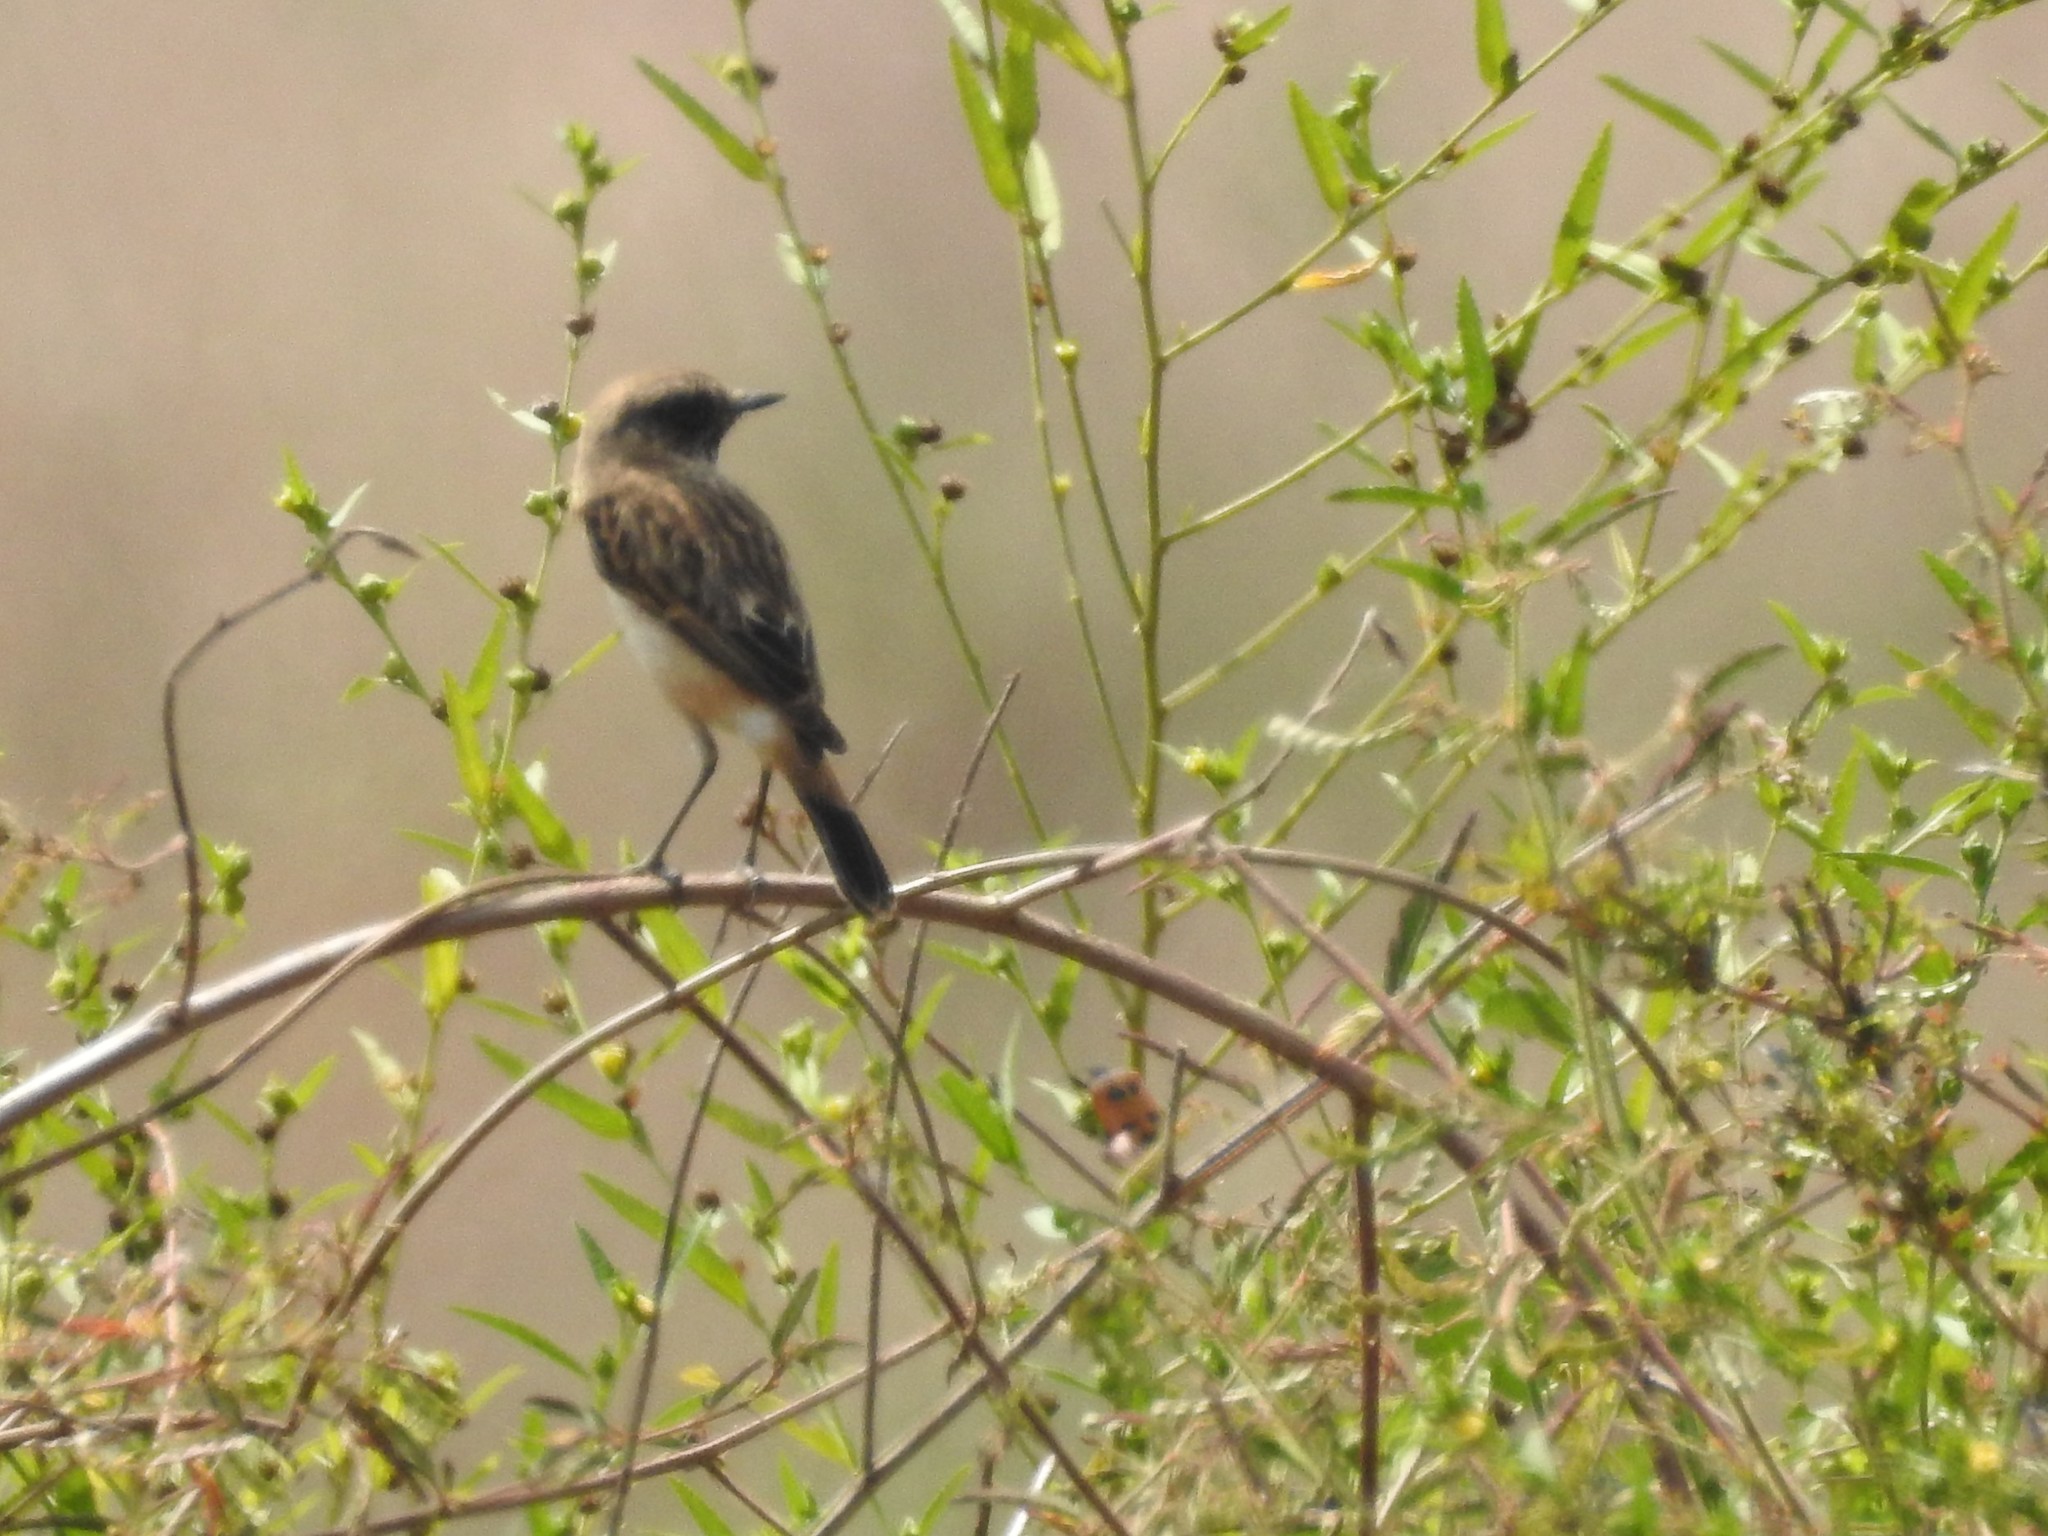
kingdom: Animalia
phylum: Chordata
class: Aves
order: Passeriformes
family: Muscicapidae
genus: Saxicola
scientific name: Saxicola maurus
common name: Siberian stonechat
